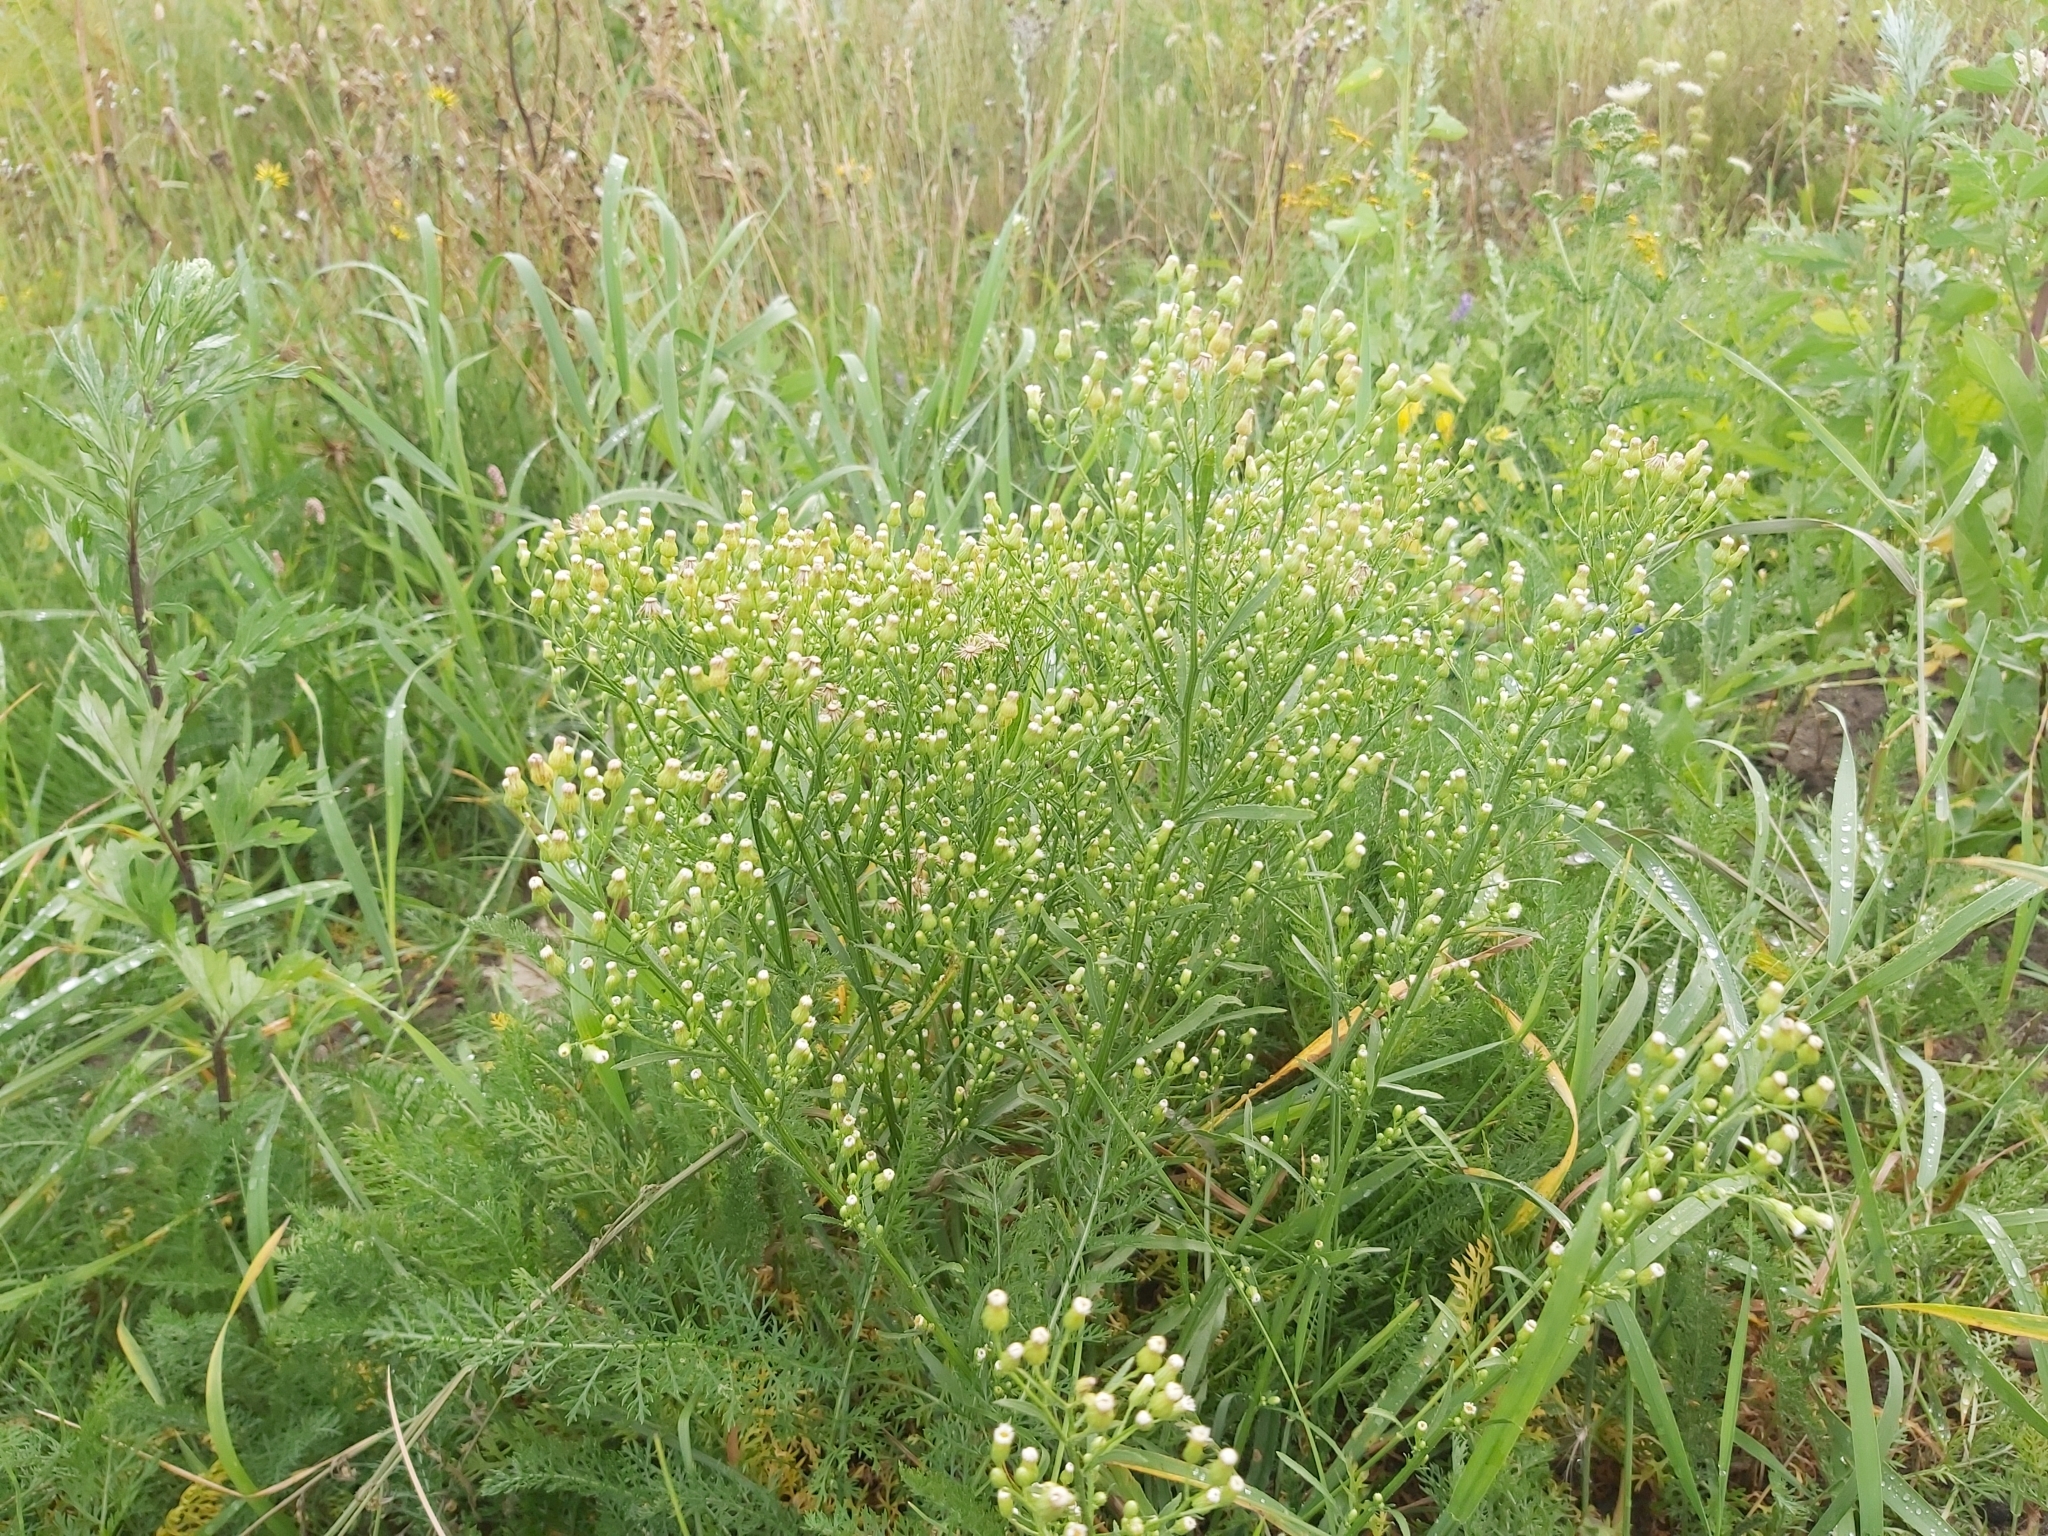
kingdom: Plantae
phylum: Tracheophyta
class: Magnoliopsida
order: Asterales
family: Asteraceae
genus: Erigeron
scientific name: Erigeron canadensis
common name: Canadian fleabane
